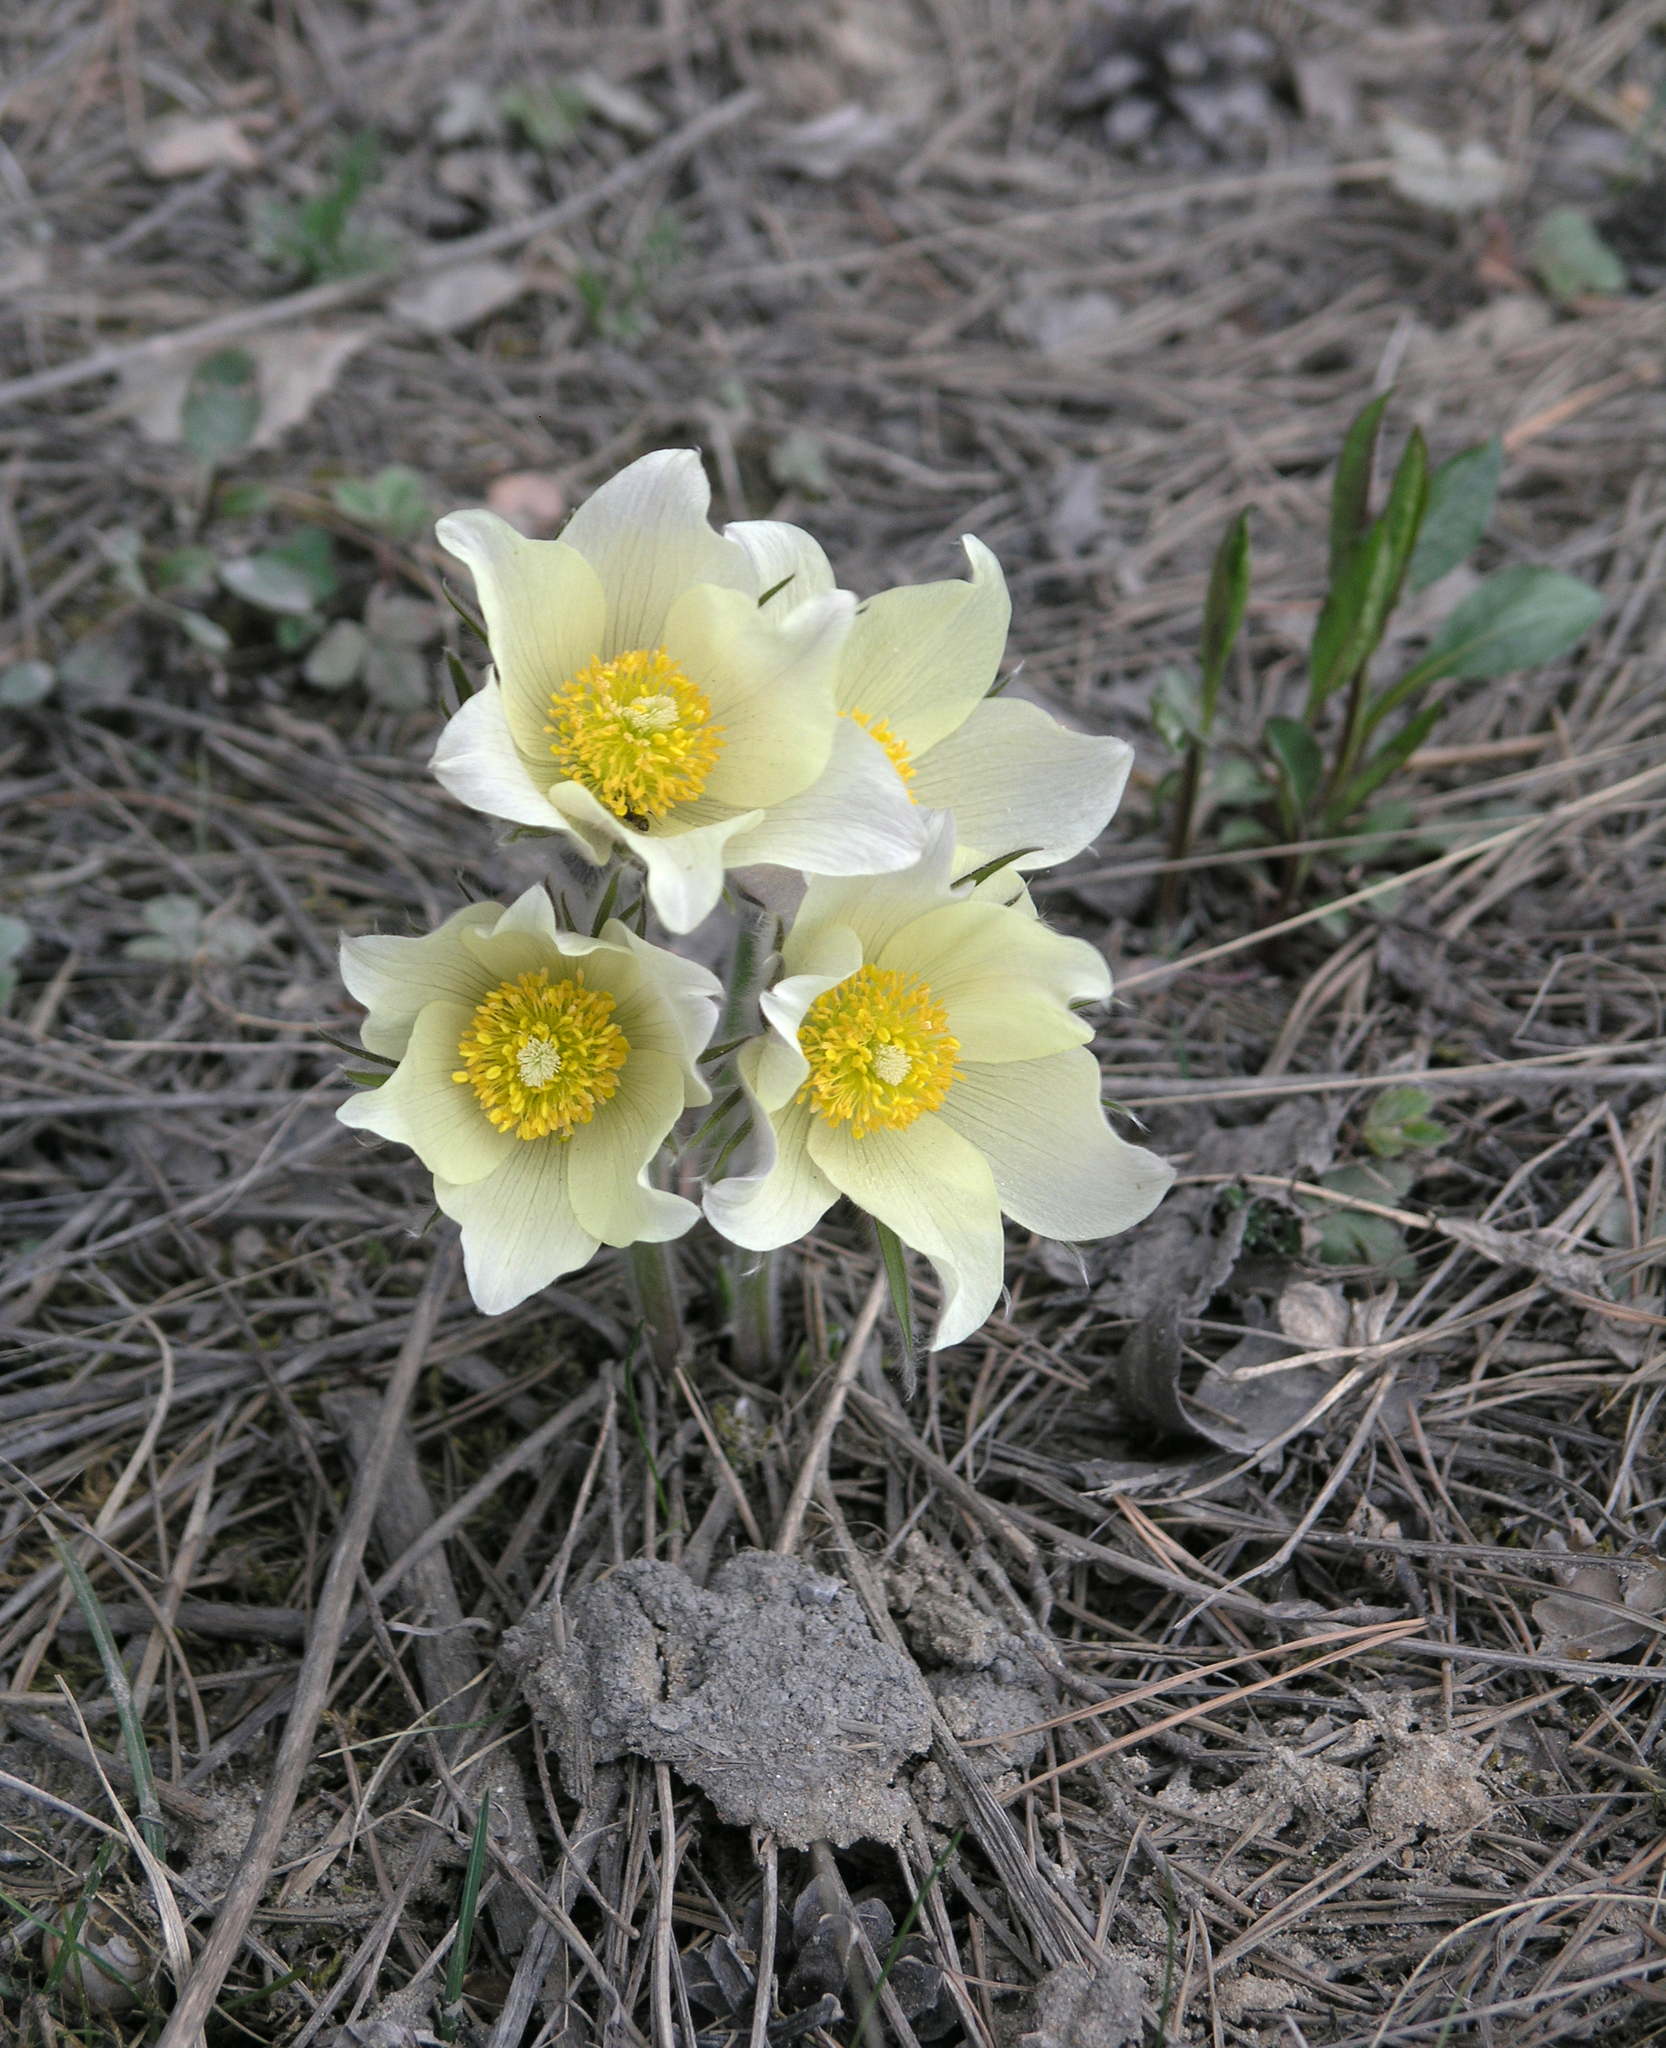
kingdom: Plantae
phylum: Tracheophyta
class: Magnoliopsida
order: Ranunculales
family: Ranunculaceae
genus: Pulsatilla
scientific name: Pulsatilla patens
